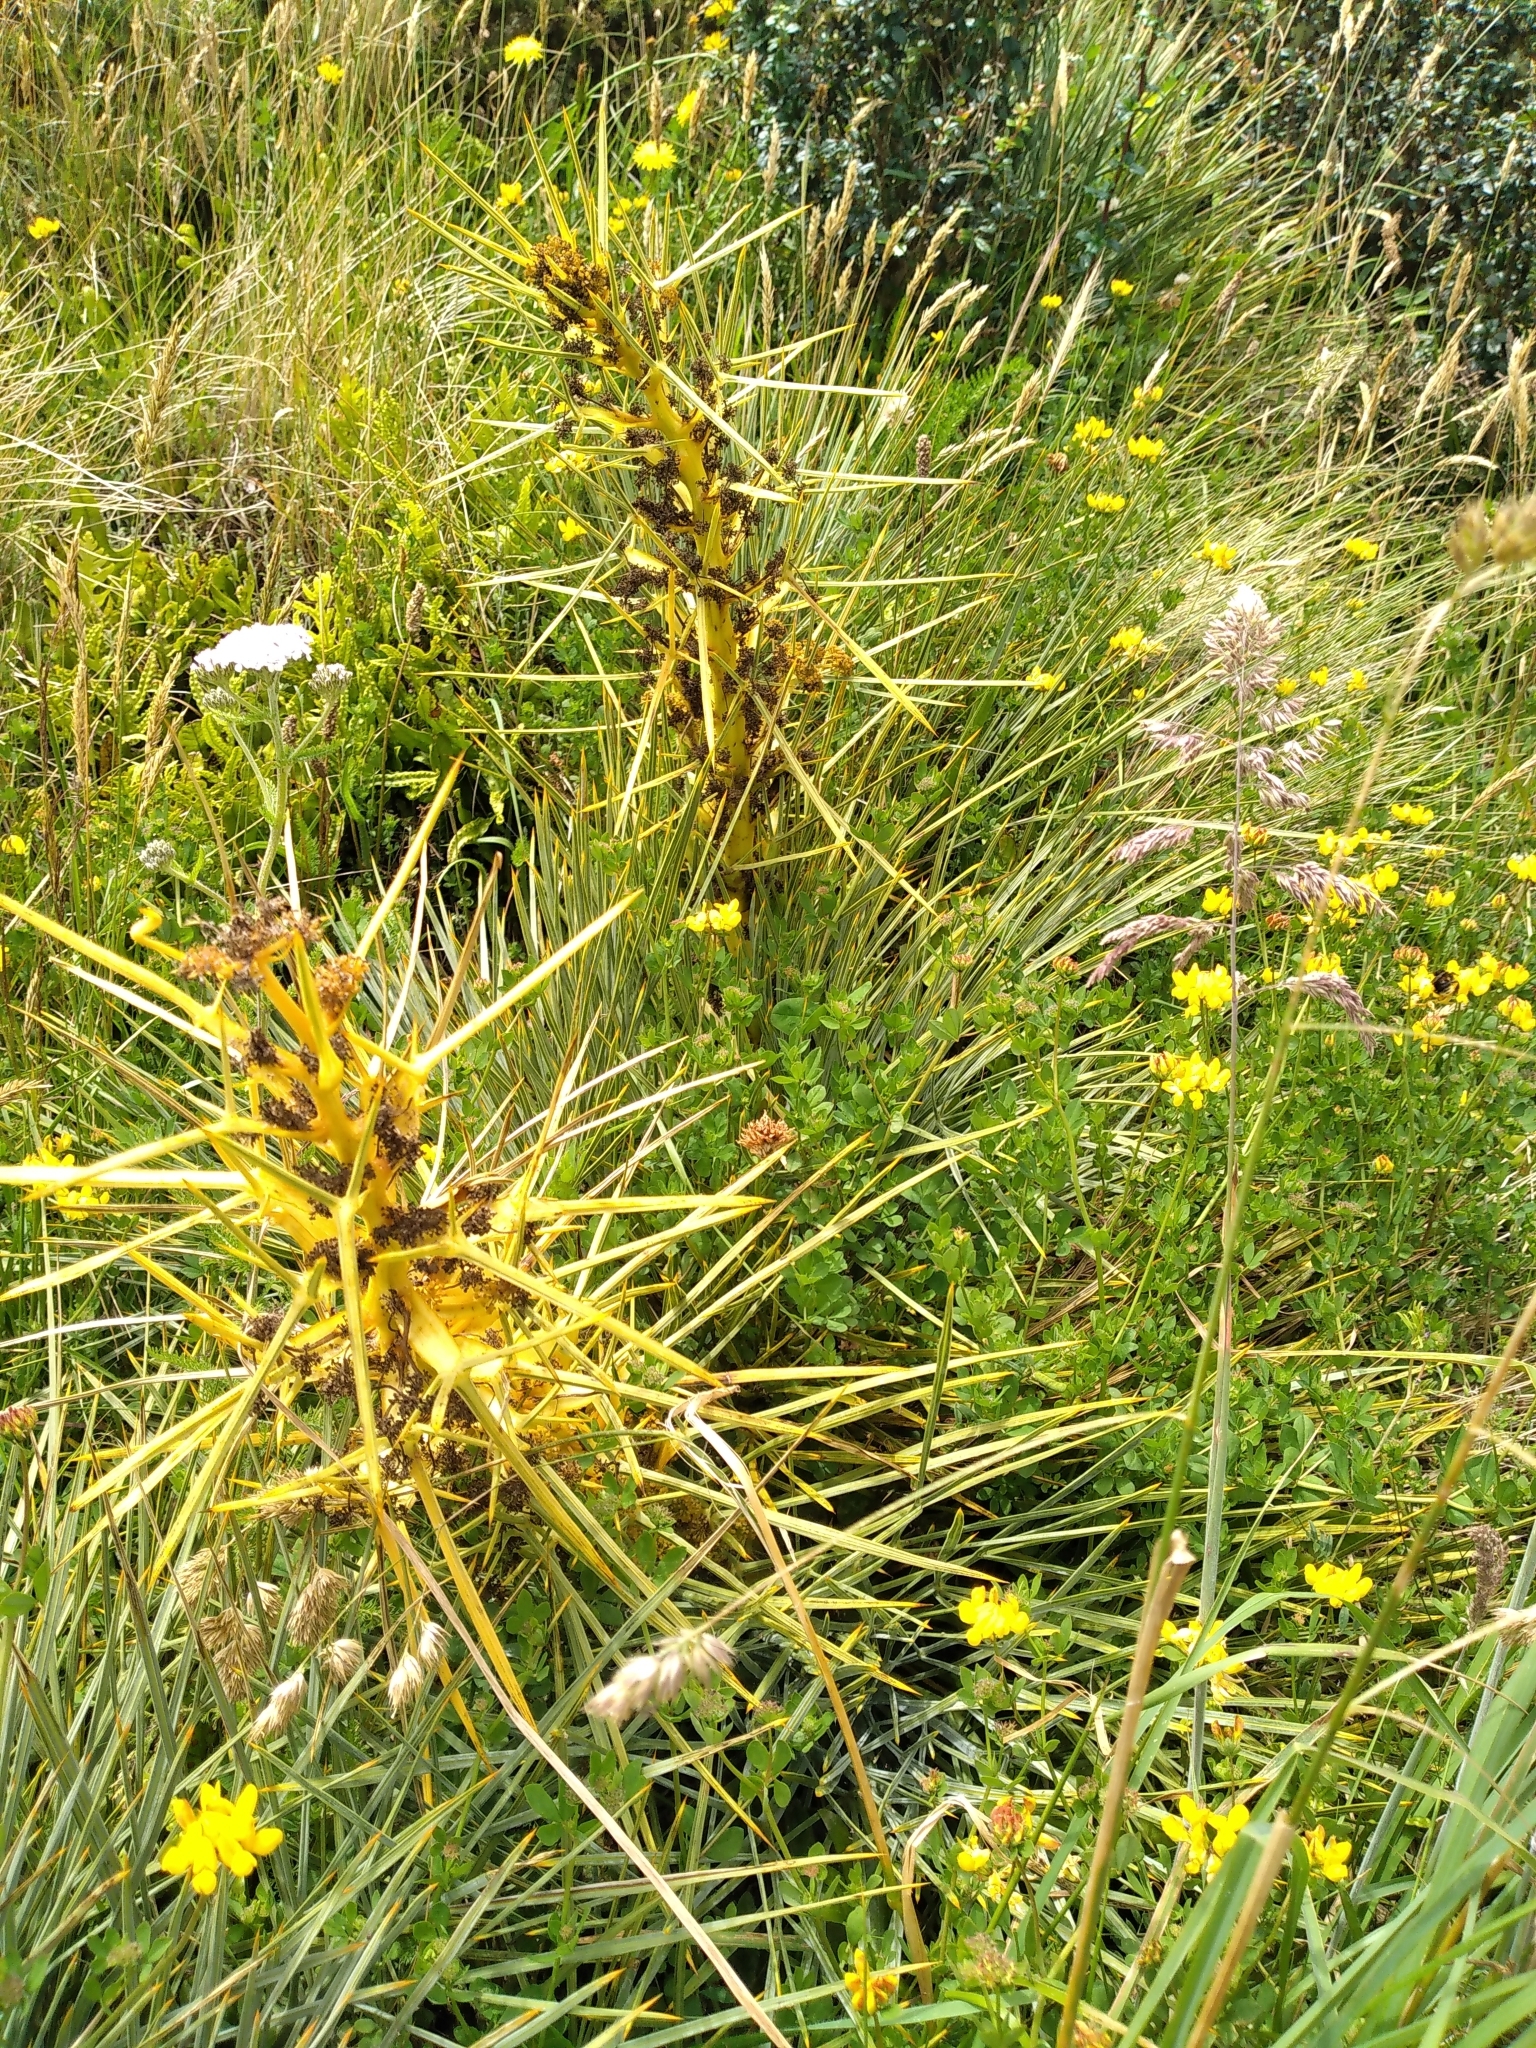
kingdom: Plantae
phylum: Tracheophyta
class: Magnoliopsida
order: Apiales
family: Apiaceae
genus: Aciphylla
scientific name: Aciphylla squarrosa
